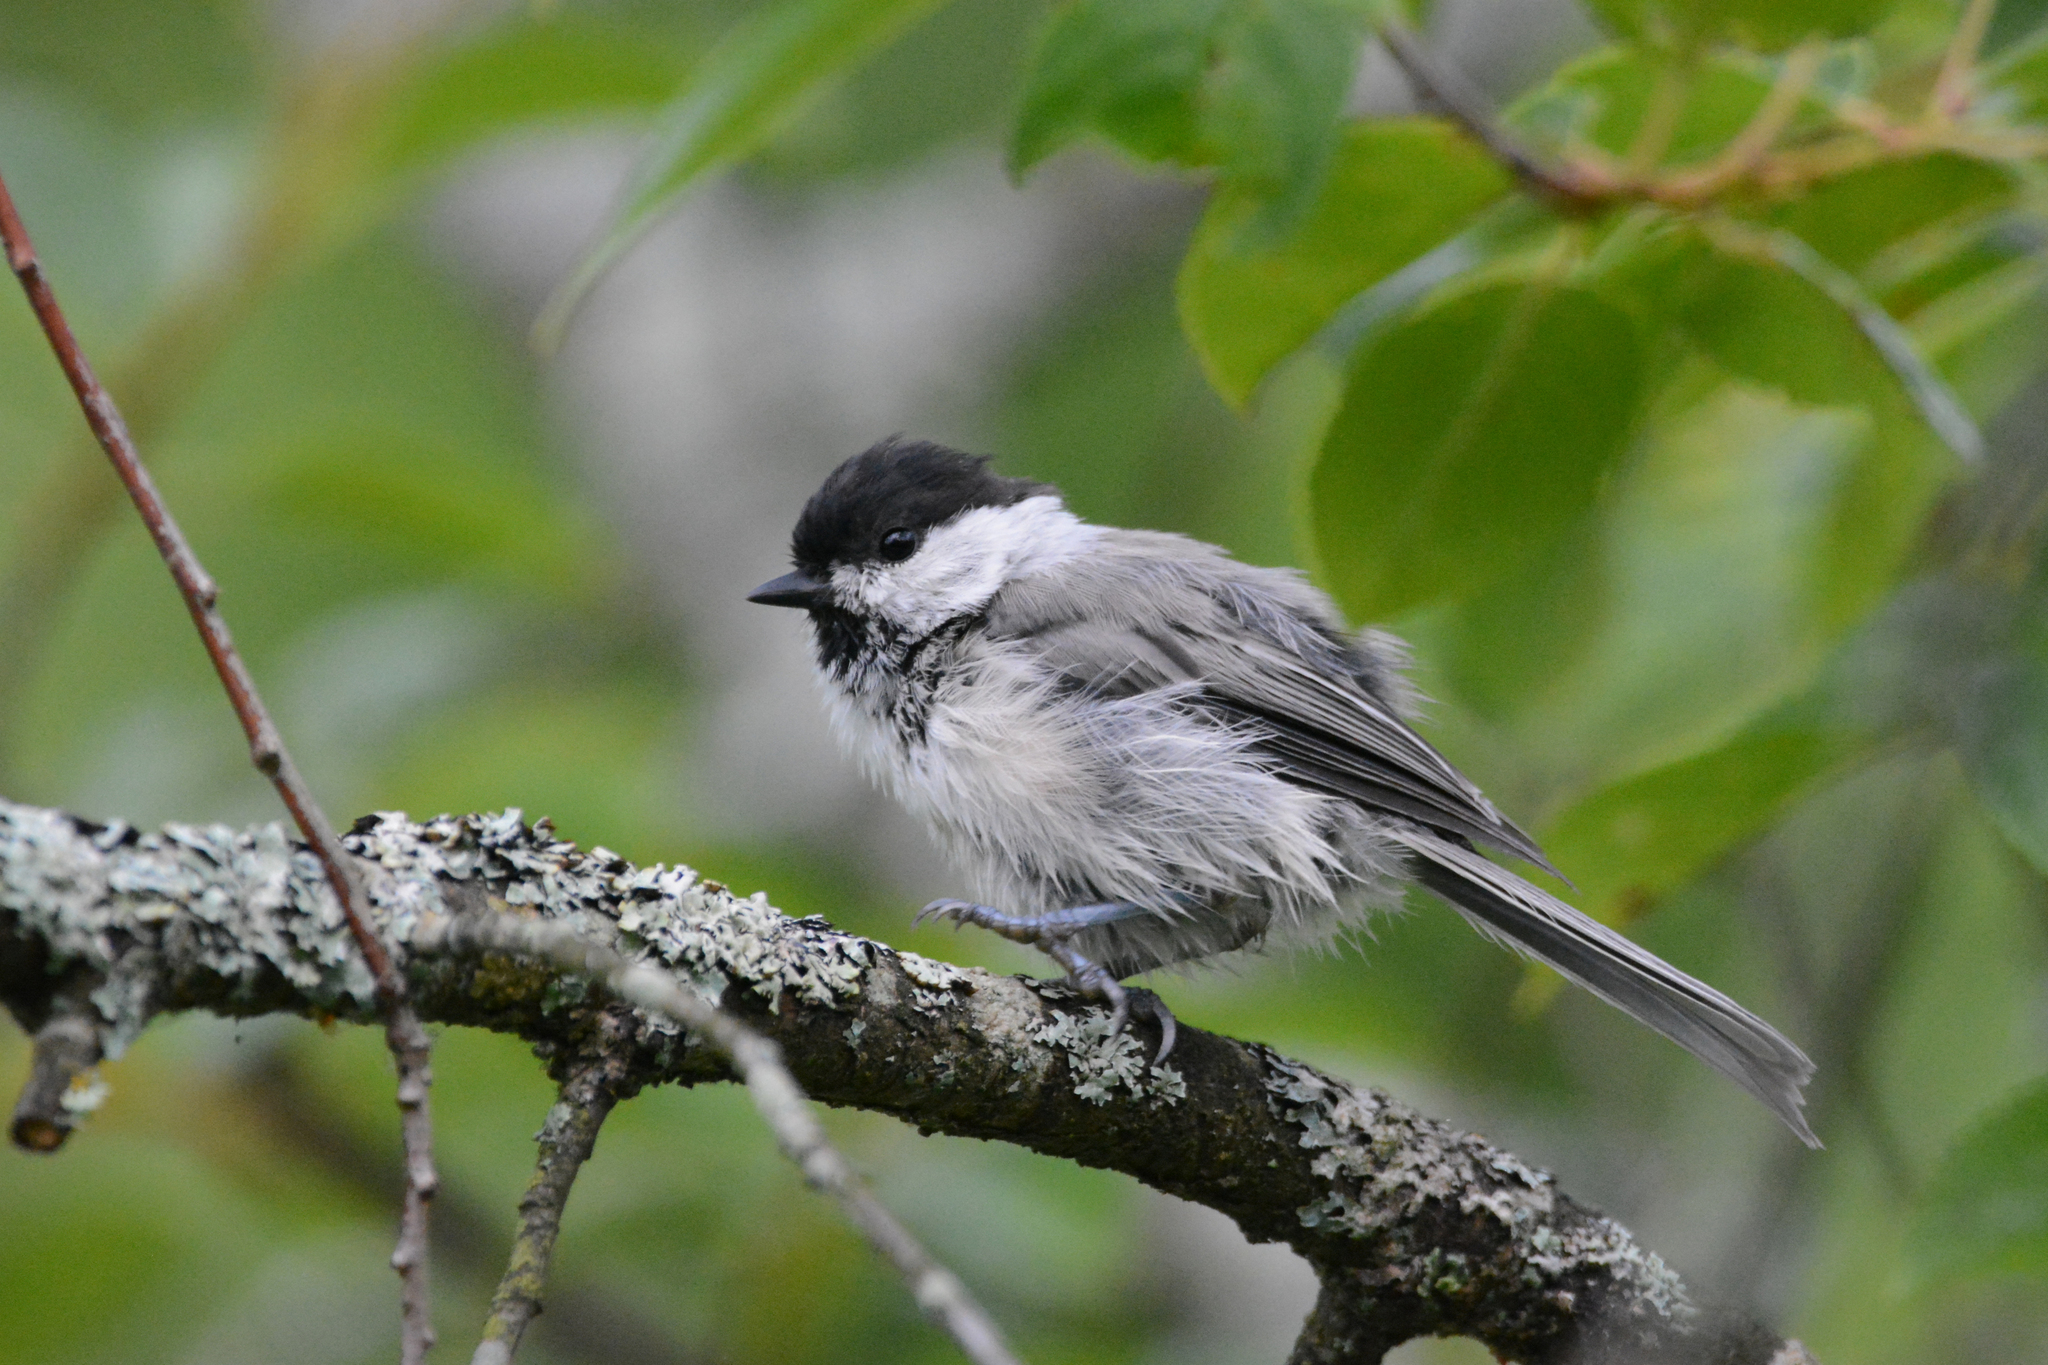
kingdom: Animalia
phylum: Chordata
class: Aves
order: Passeriformes
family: Paridae
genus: Poecile
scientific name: Poecile montanus
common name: Willow tit
